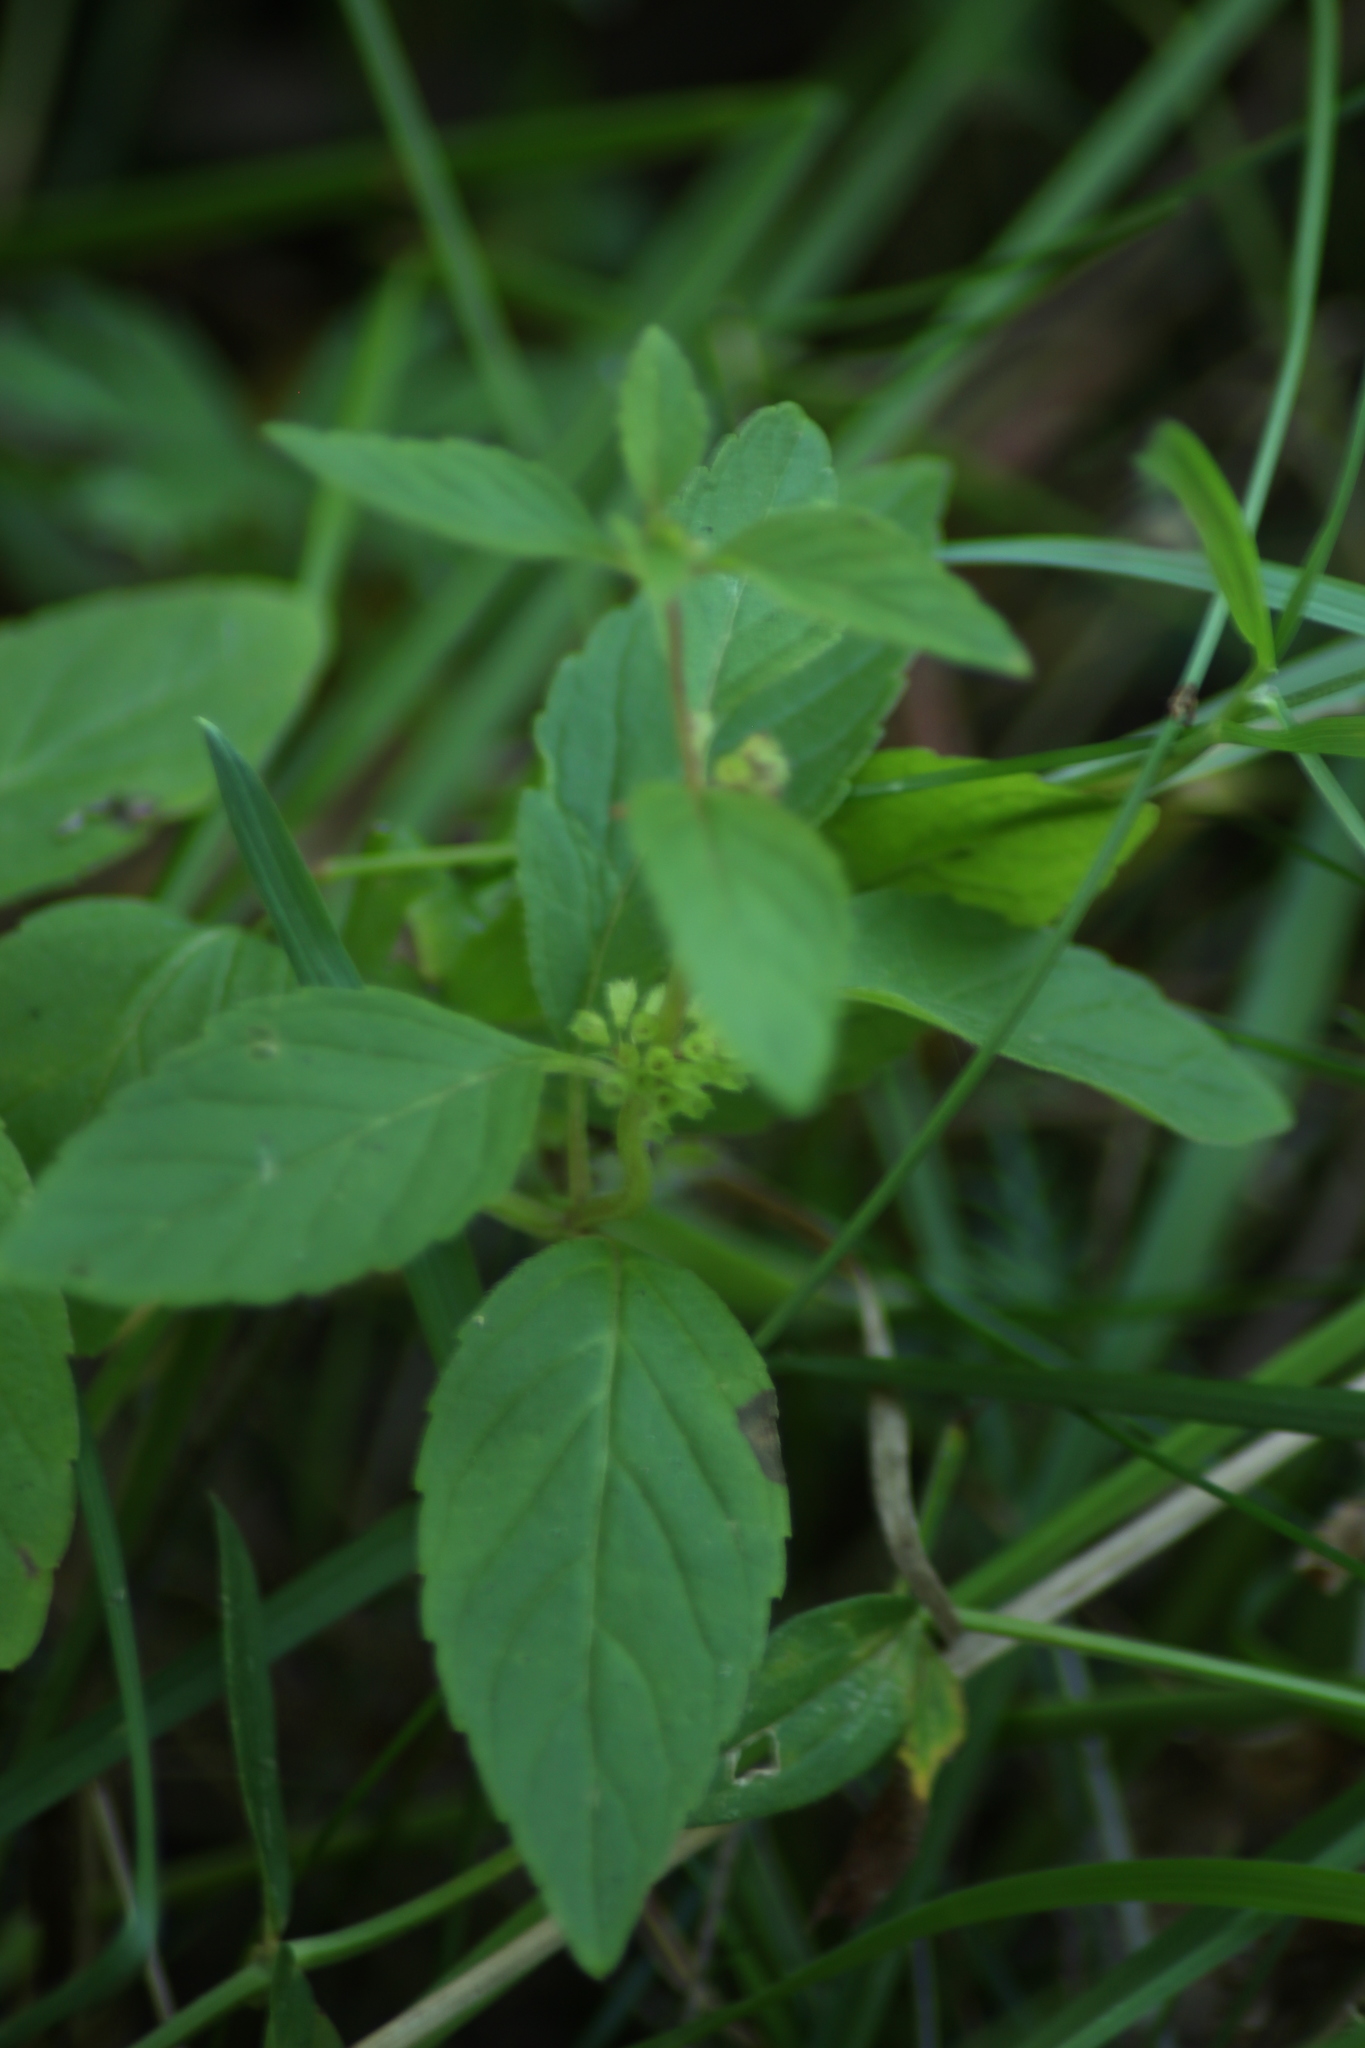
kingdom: Plantae
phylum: Tracheophyta
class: Magnoliopsida
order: Lamiales
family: Lamiaceae
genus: Mentha
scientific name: Mentha arvensis
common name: Corn mint
